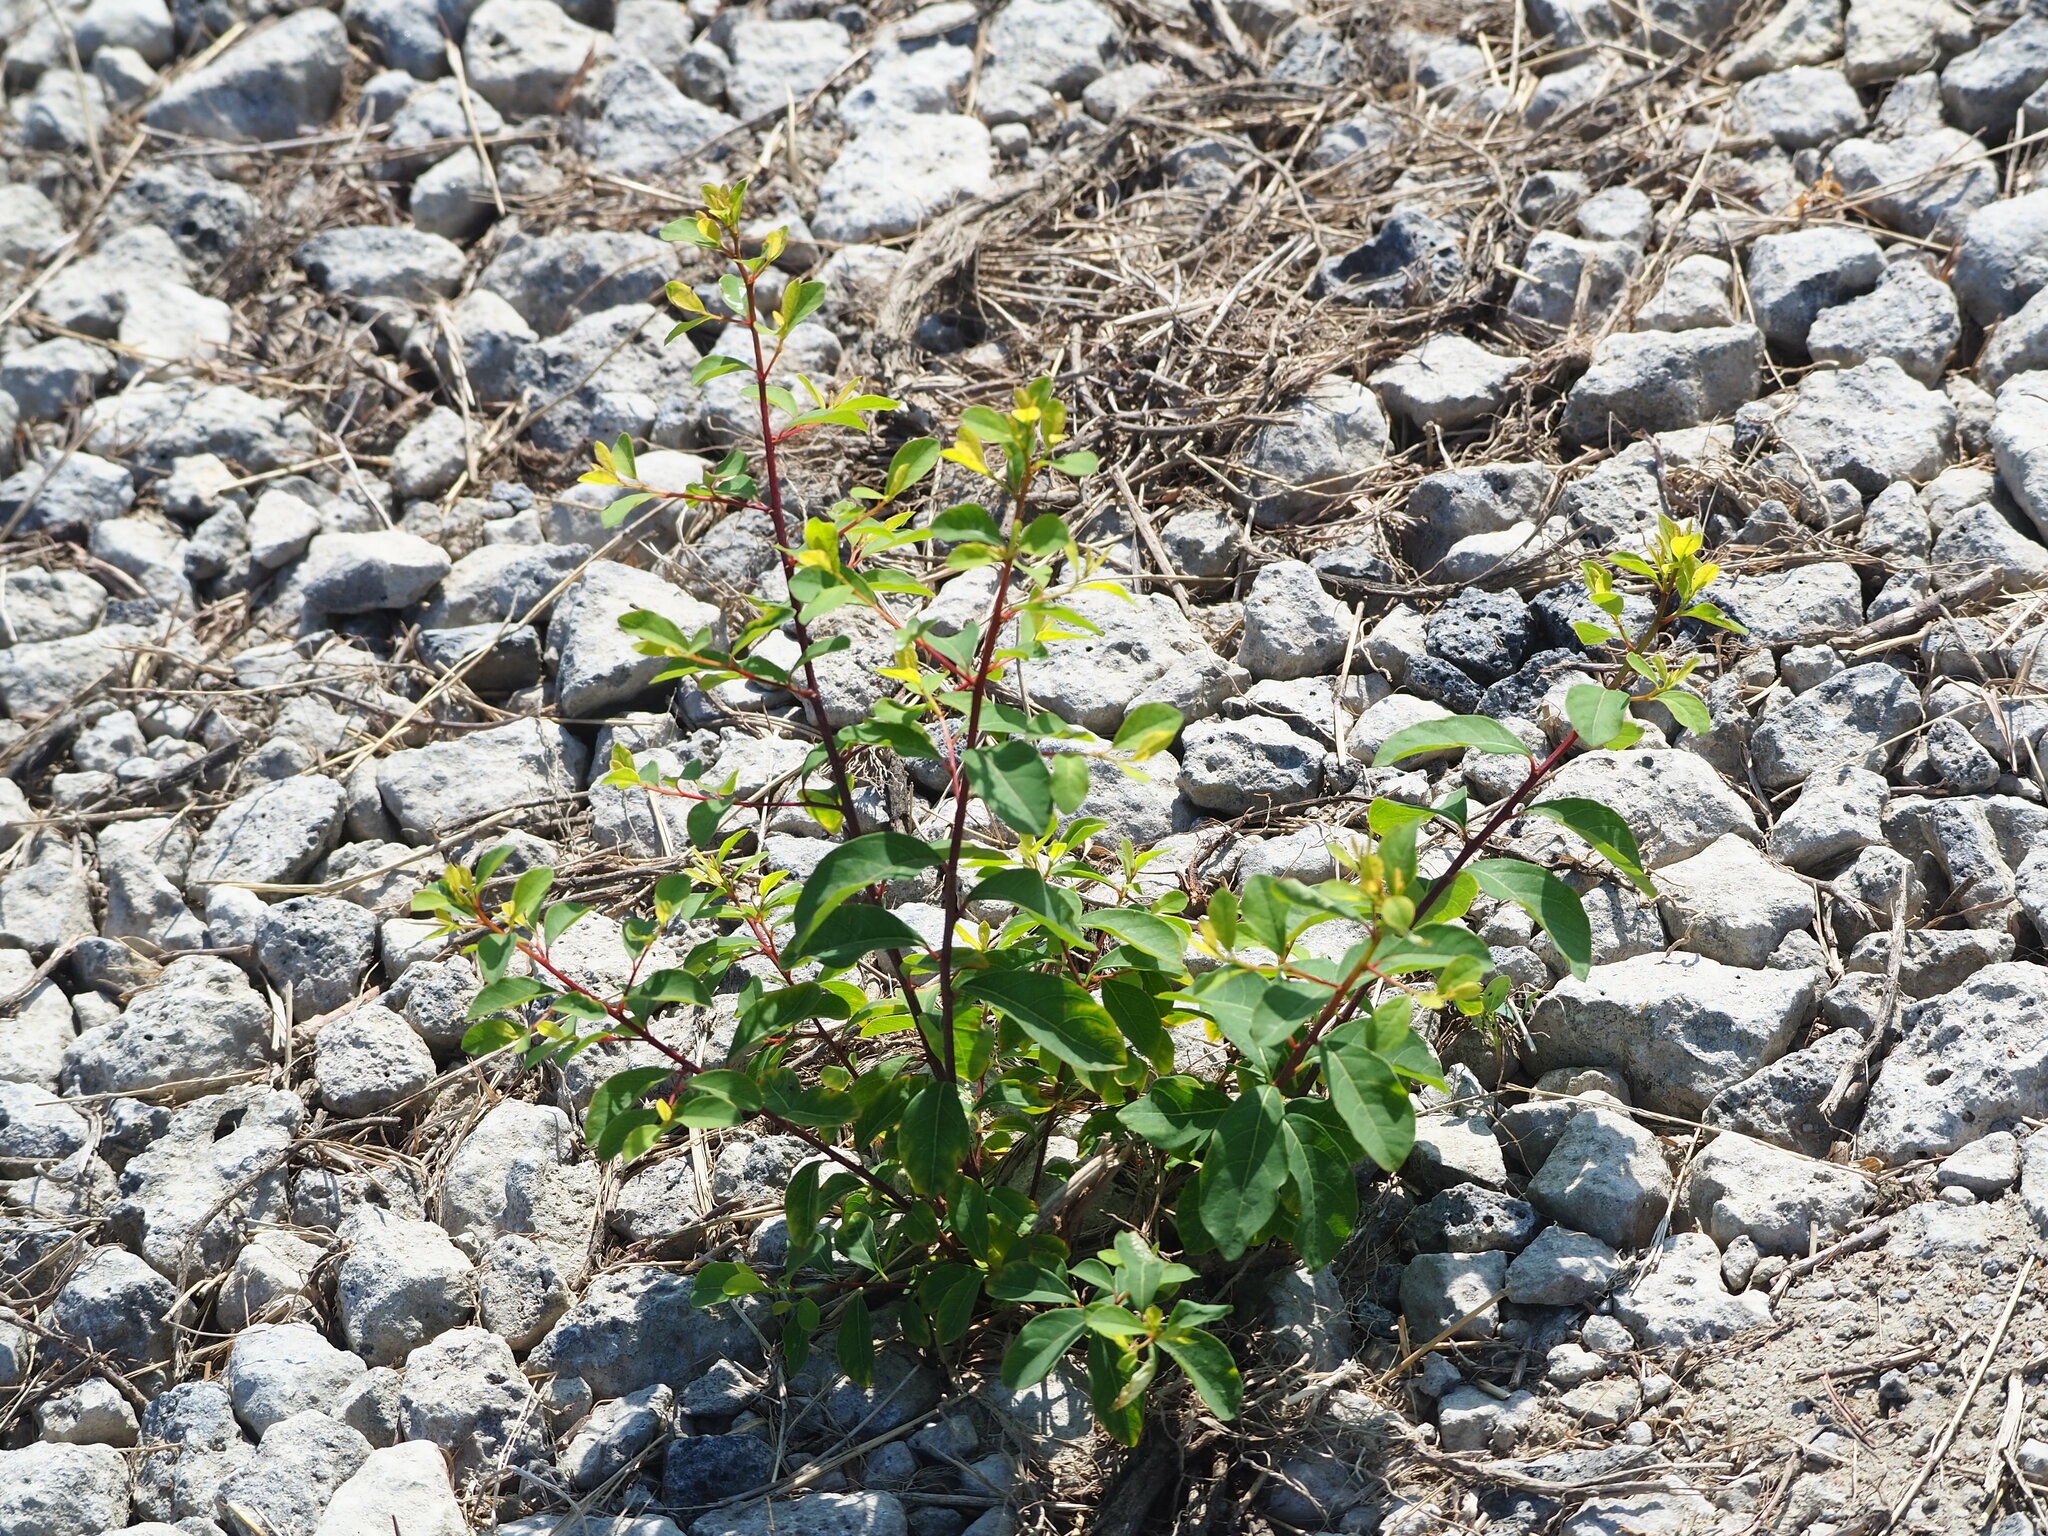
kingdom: Plantae
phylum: Tracheophyta
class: Magnoliopsida
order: Malpighiales
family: Phyllanthaceae
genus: Flueggea
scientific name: Flueggea virosa
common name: Common bushweed
